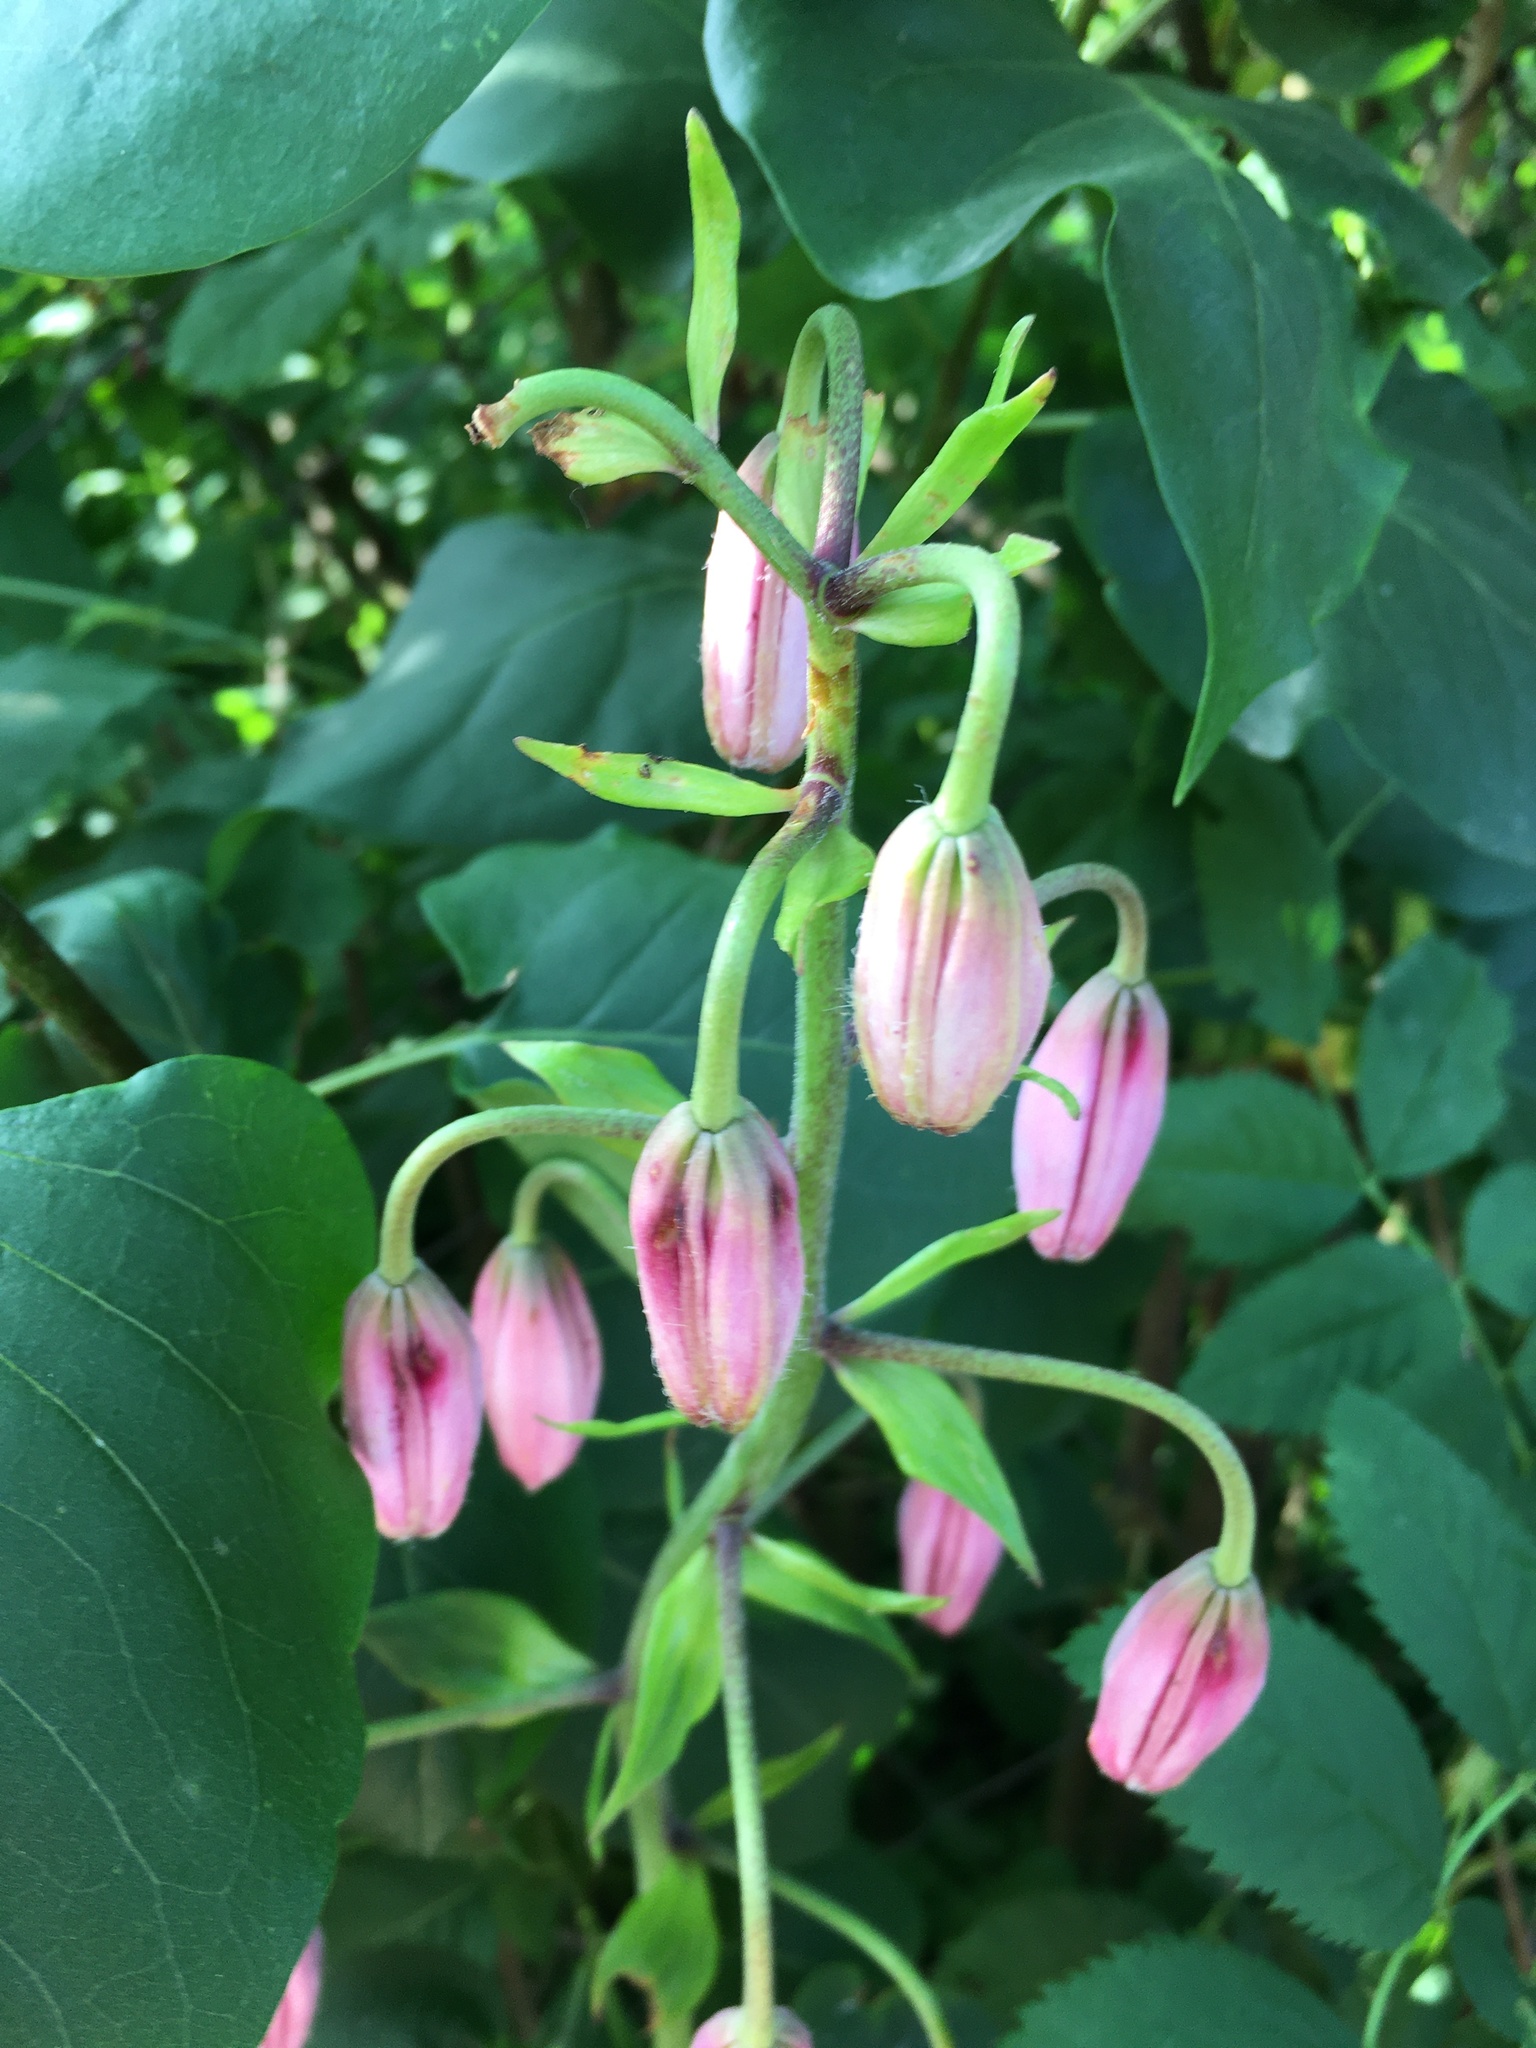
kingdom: Plantae
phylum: Tracheophyta
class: Liliopsida
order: Liliales
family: Liliaceae
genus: Lilium
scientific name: Lilium martagon
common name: Martagon lily
